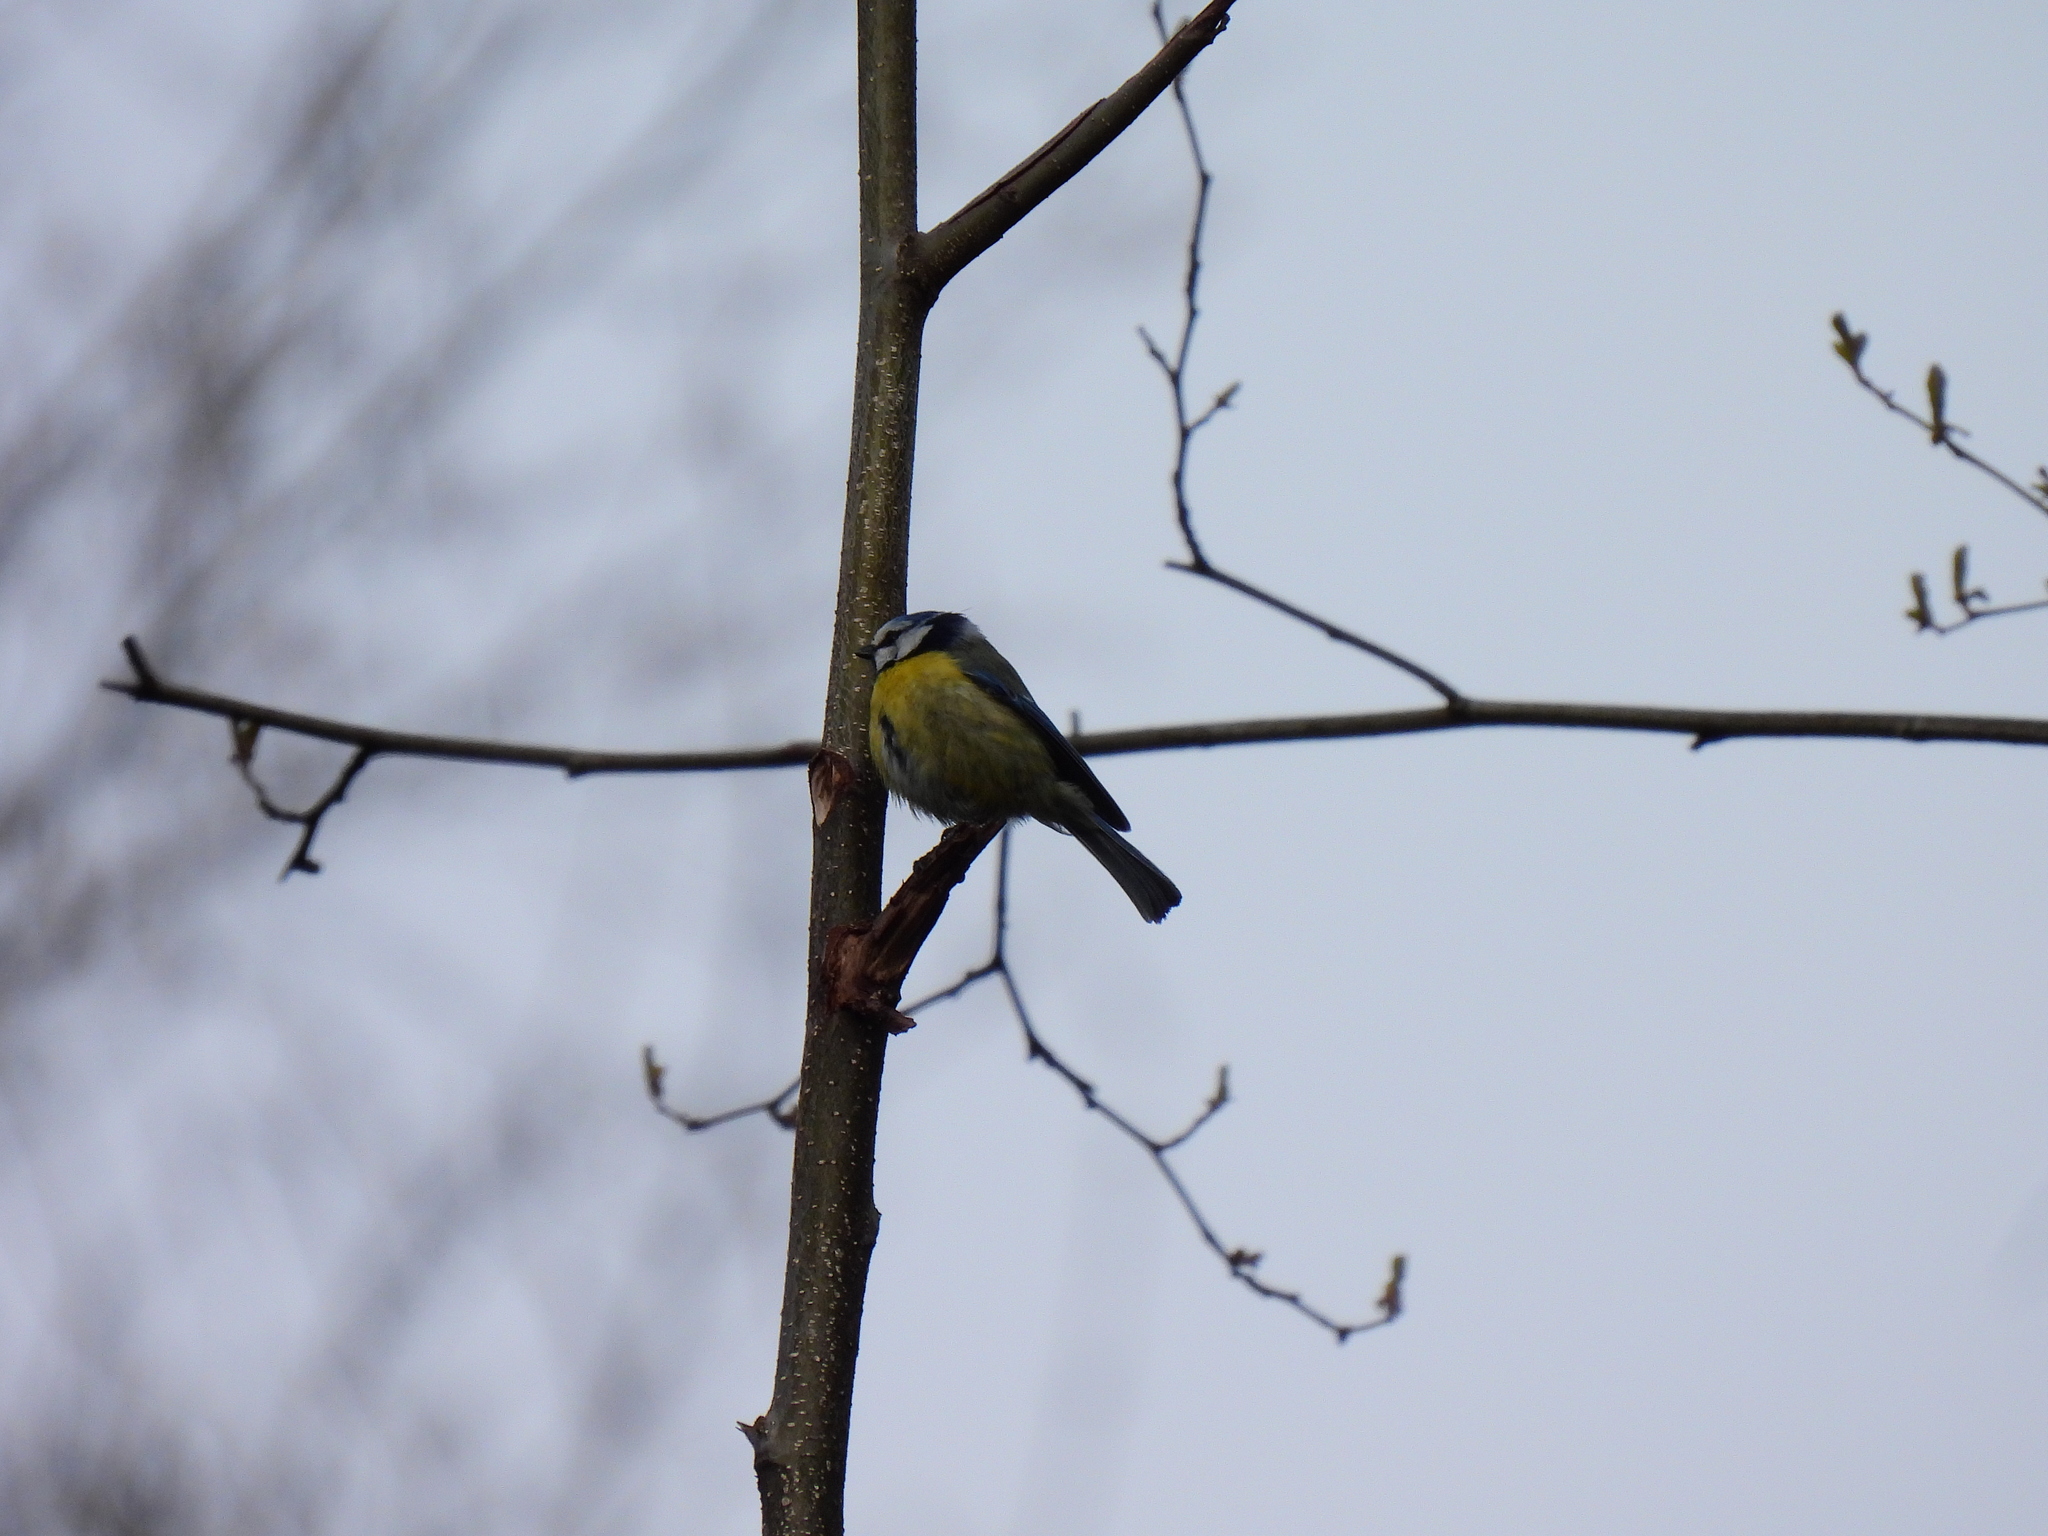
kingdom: Animalia
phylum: Chordata
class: Aves
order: Passeriformes
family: Paridae
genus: Cyanistes
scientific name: Cyanistes caeruleus
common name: Eurasian blue tit
